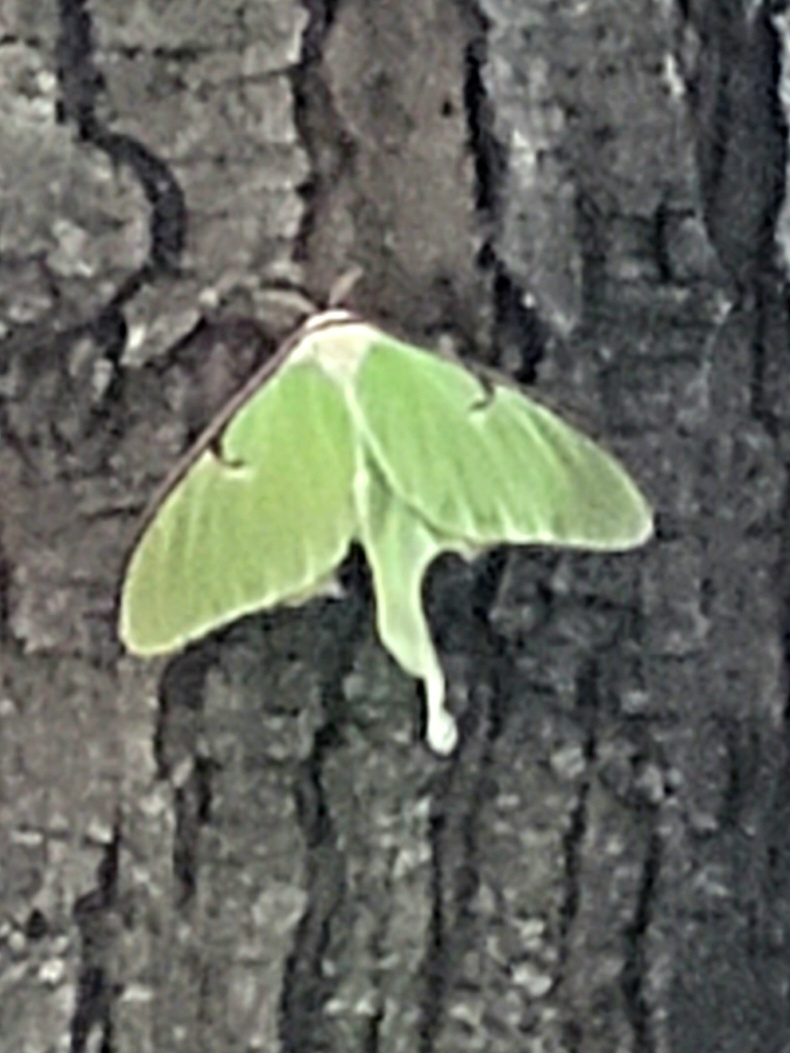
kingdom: Animalia
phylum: Arthropoda
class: Insecta
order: Lepidoptera
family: Saturniidae
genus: Actias
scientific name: Actias luna
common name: Luna moth
